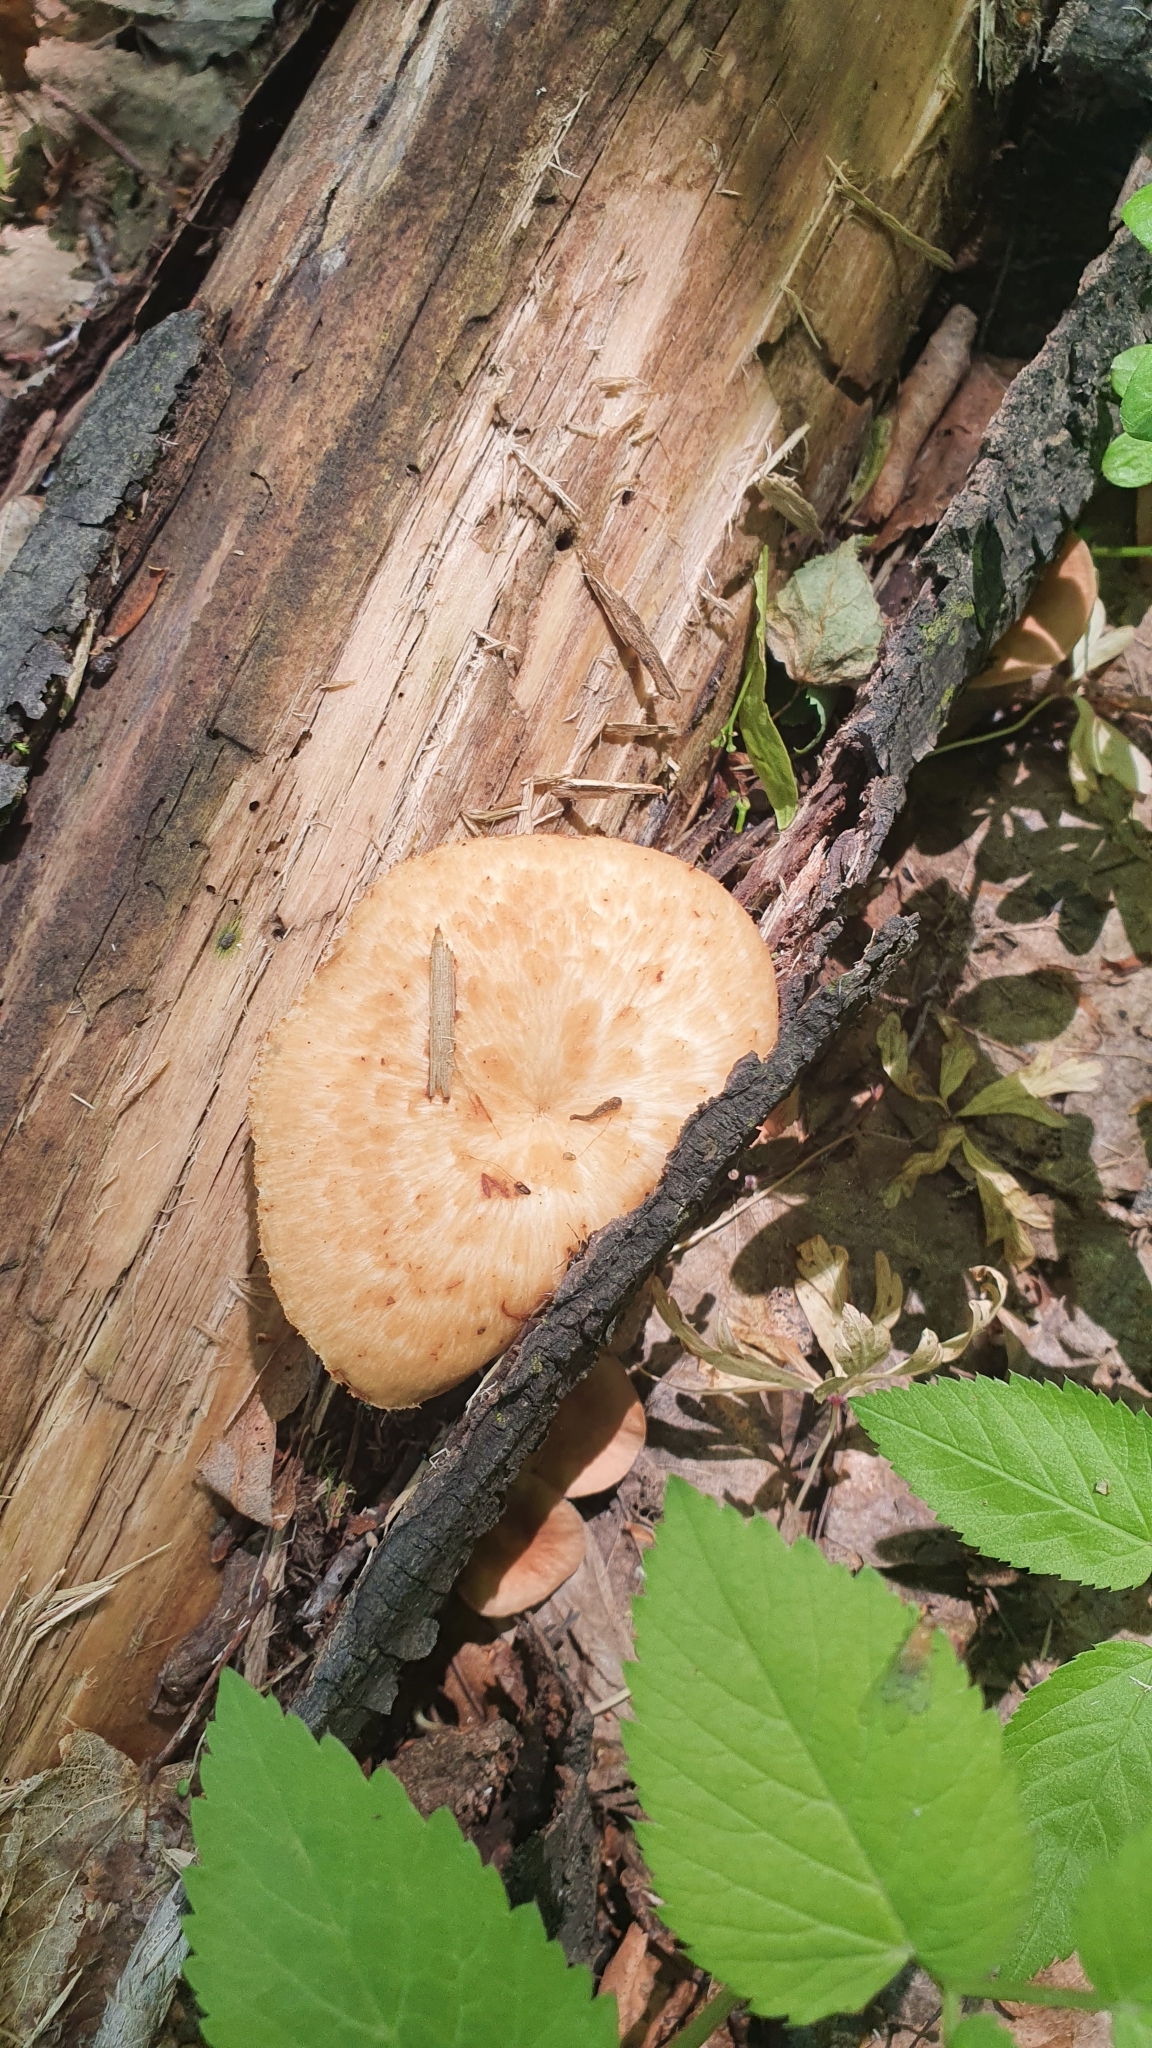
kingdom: Fungi
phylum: Basidiomycota
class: Agaricomycetes
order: Polyporales
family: Polyporaceae
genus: Polyporus
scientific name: Polyporus tuberaster
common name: Tuberous polypore
